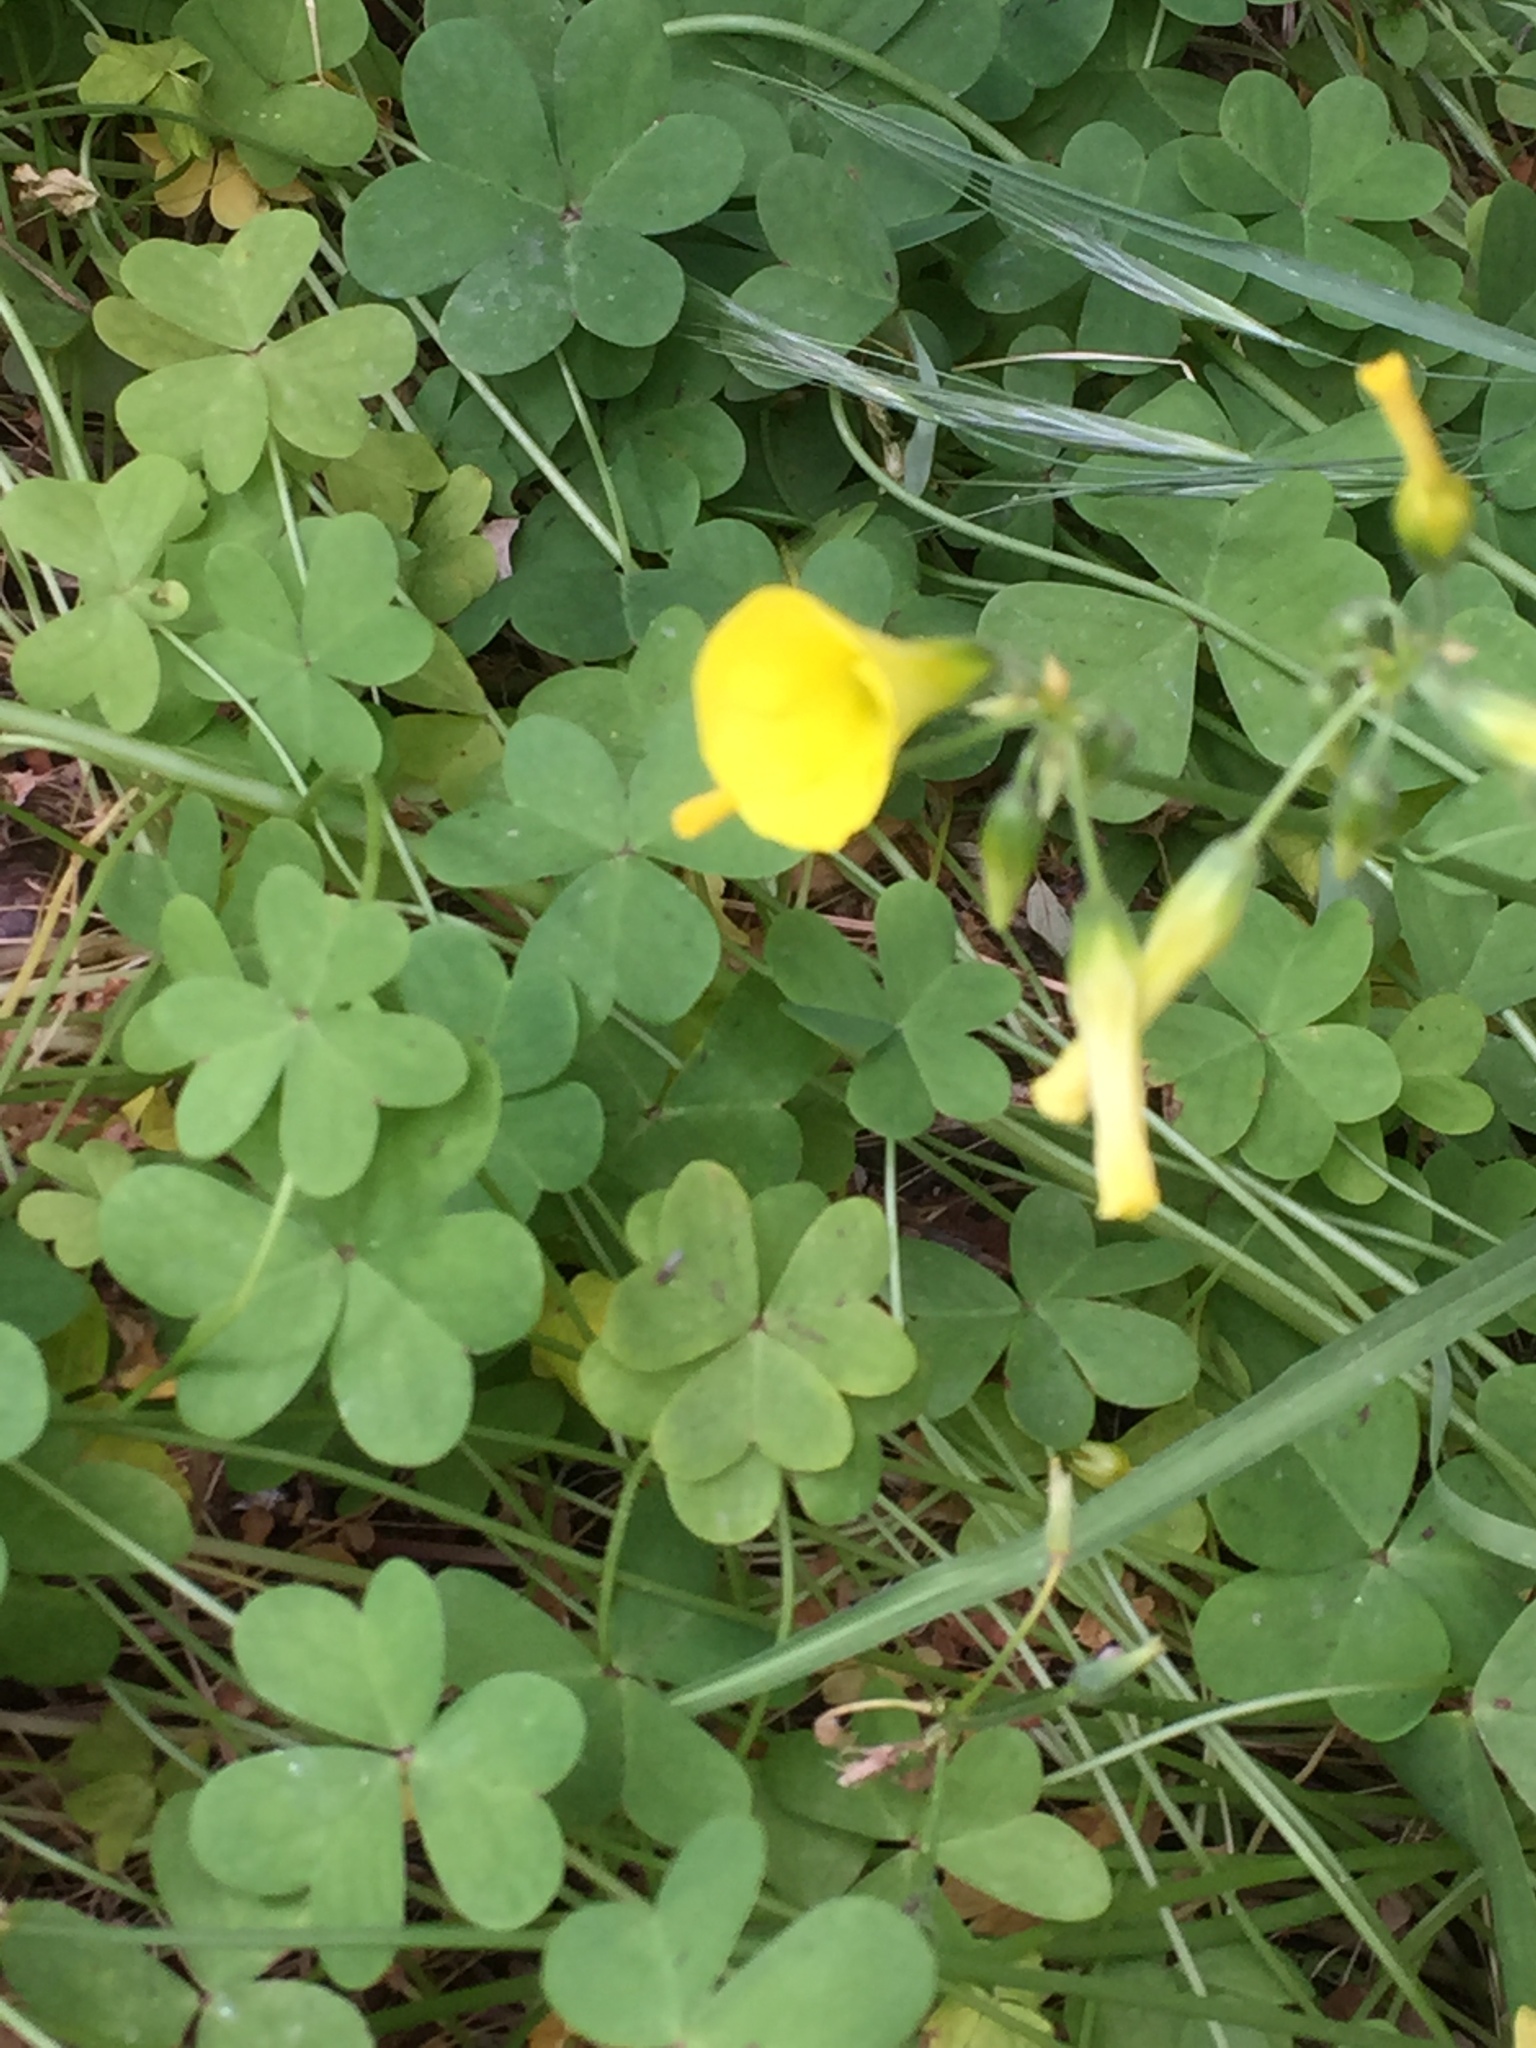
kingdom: Plantae
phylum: Tracheophyta
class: Magnoliopsida
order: Oxalidales
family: Oxalidaceae
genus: Oxalis
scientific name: Oxalis pes-caprae
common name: Bermuda-buttercup
